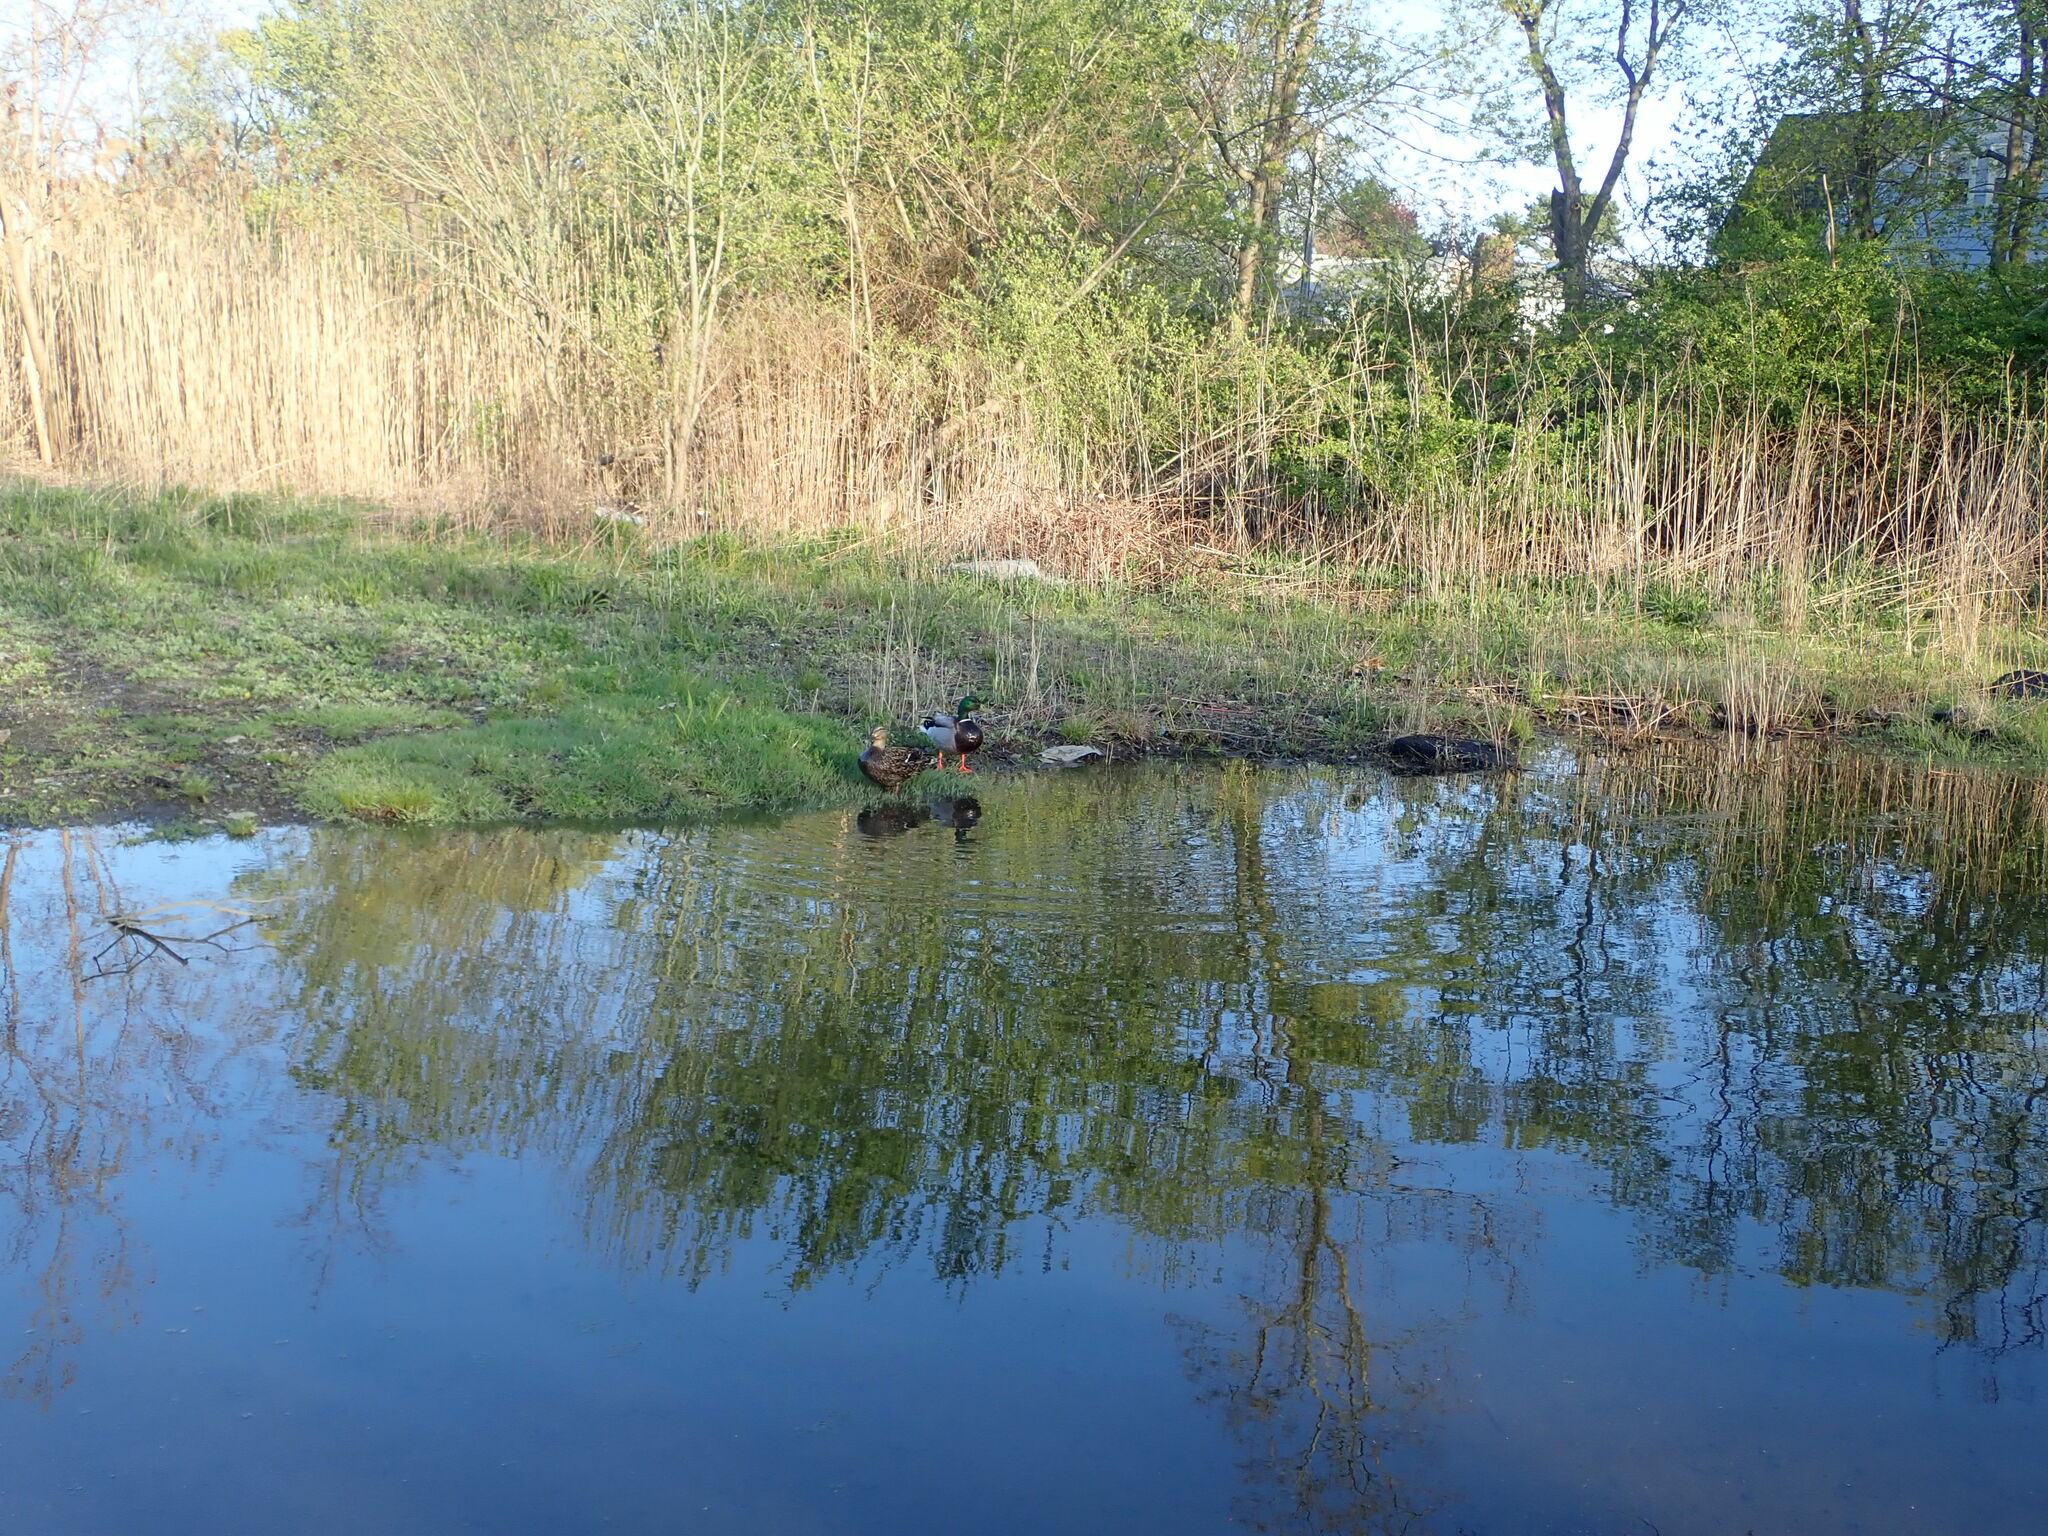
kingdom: Animalia
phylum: Chordata
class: Aves
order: Anseriformes
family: Anatidae
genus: Anas
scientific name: Anas platyrhynchos
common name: Mallard
